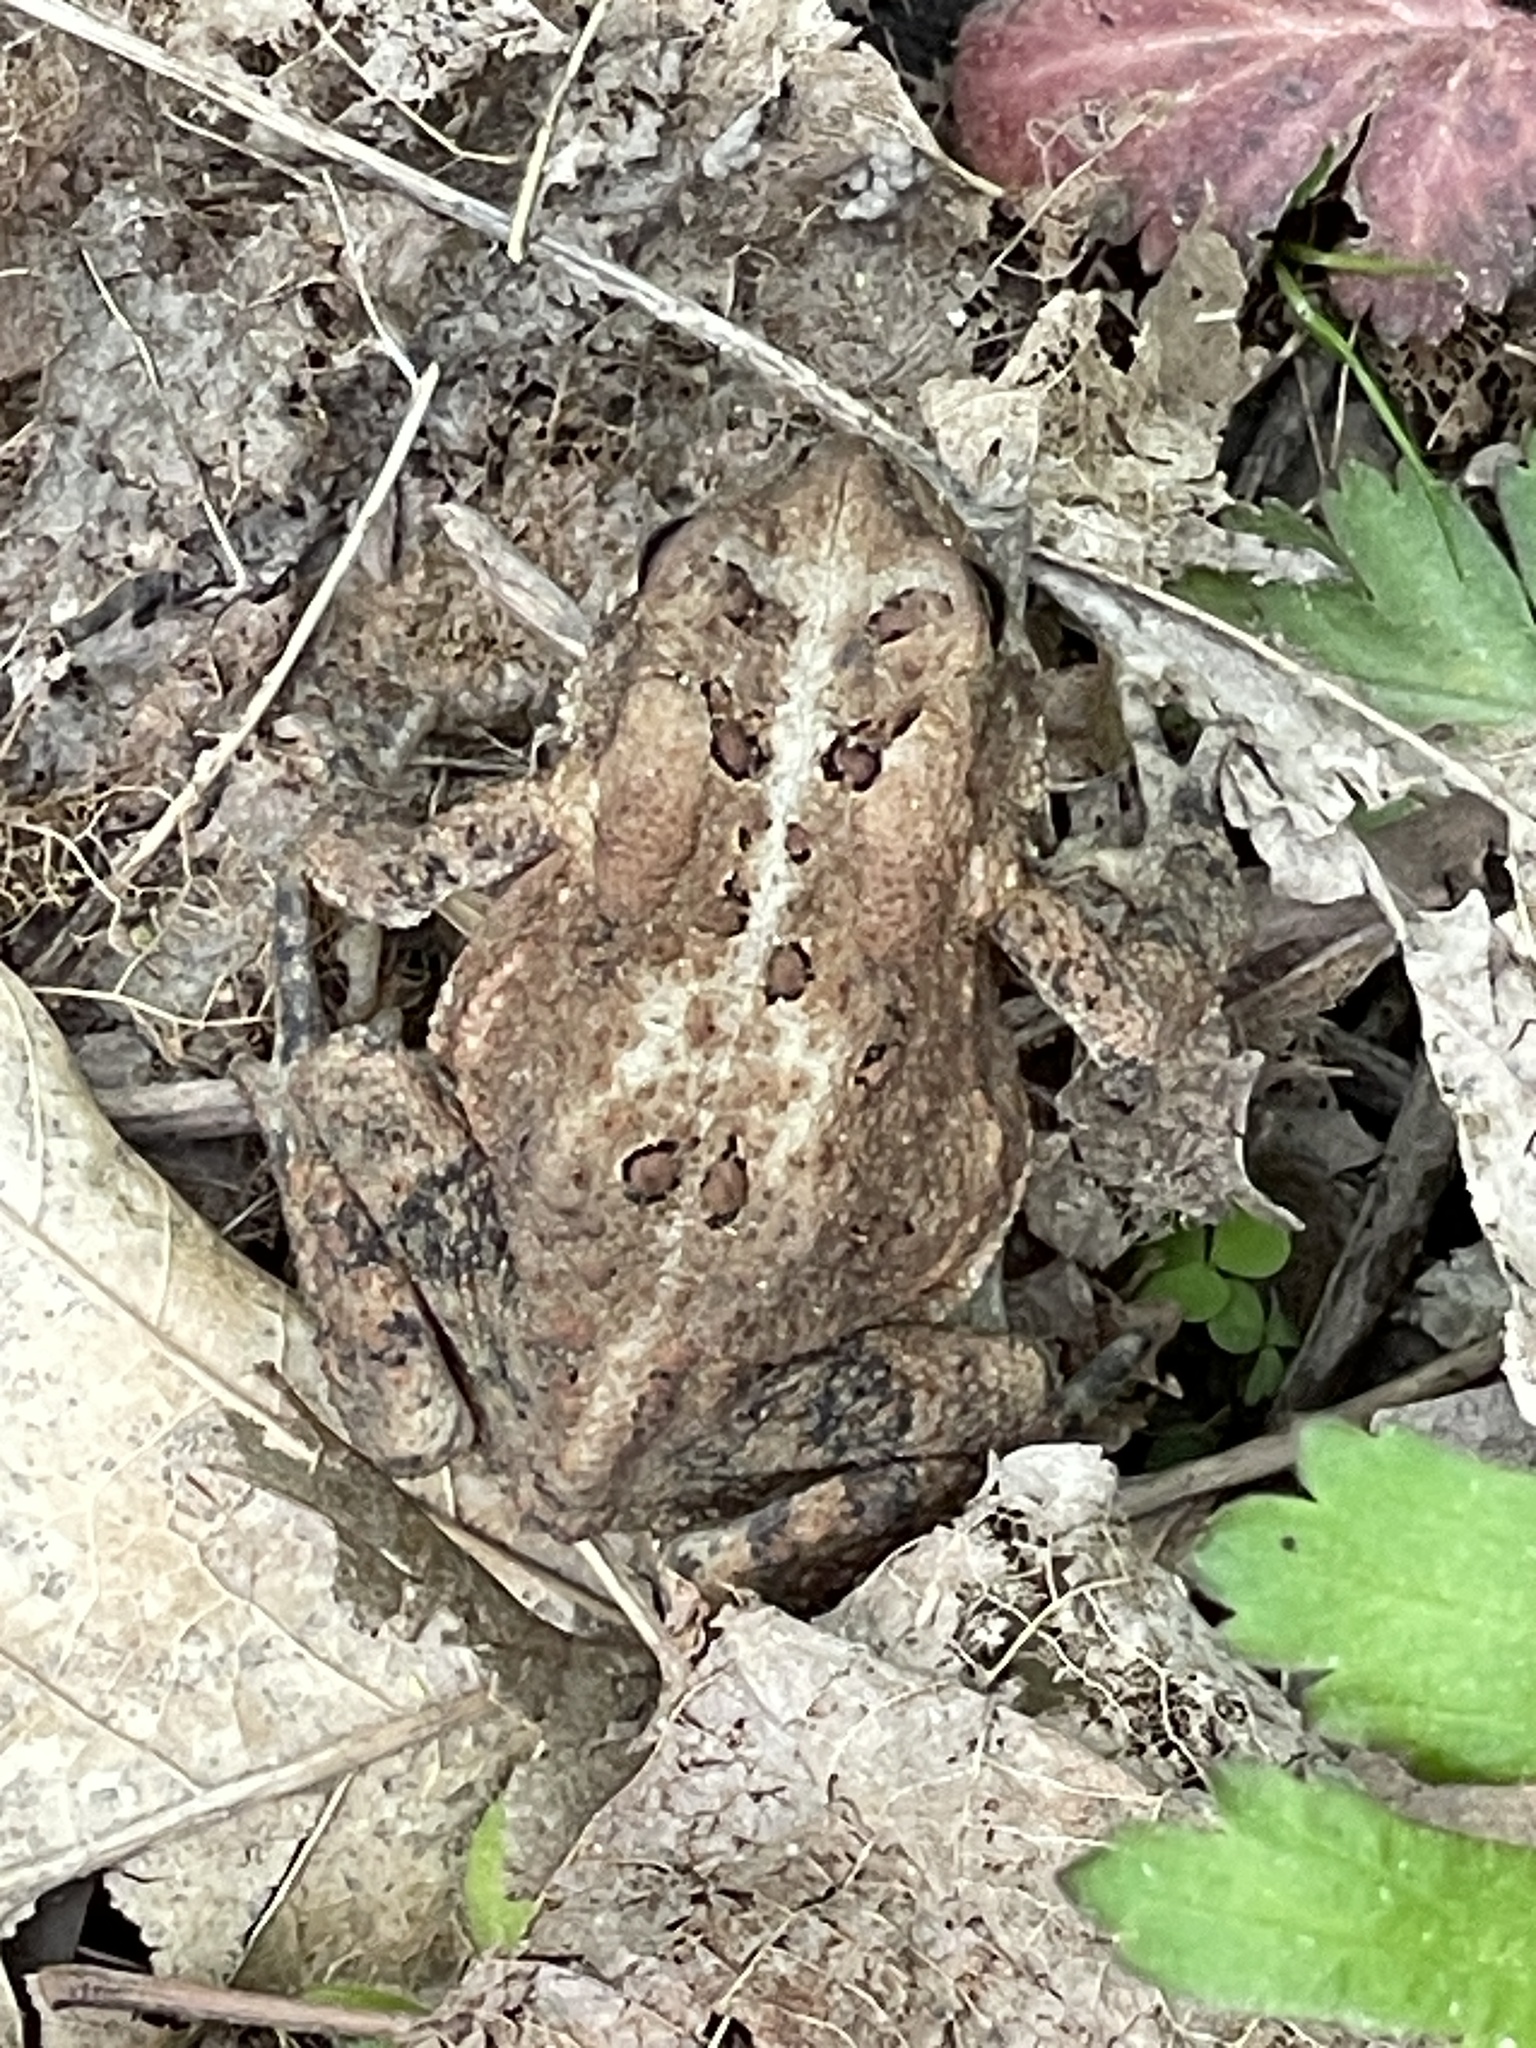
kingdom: Animalia
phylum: Chordata
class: Amphibia
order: Anura
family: Bufonidae
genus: Anaxyrus
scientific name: Anaxyrus americanus
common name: American toad
